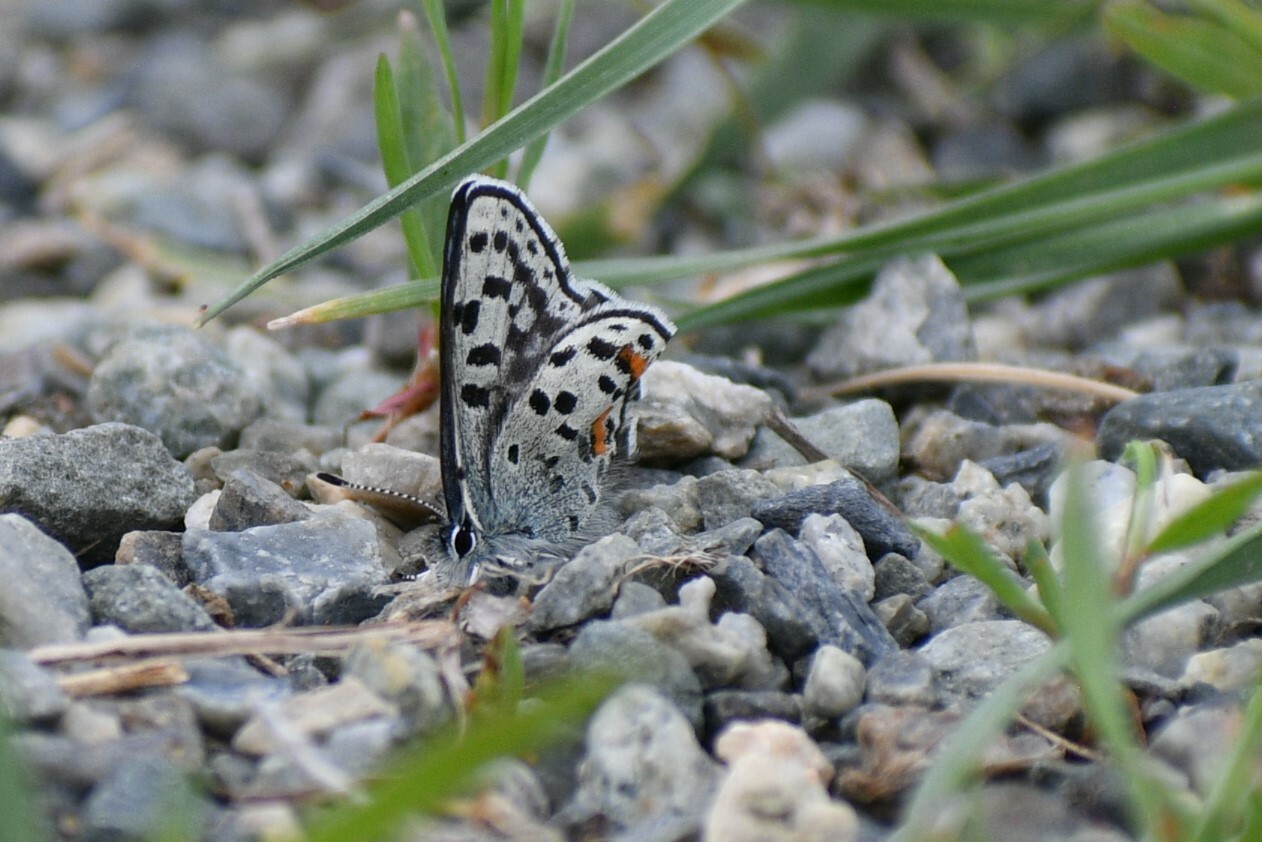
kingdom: Animalia
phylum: Arthropoda
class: Insecta
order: Lepidoptera
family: Lycaenidae
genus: Euphilotes
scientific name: Euphilotes
